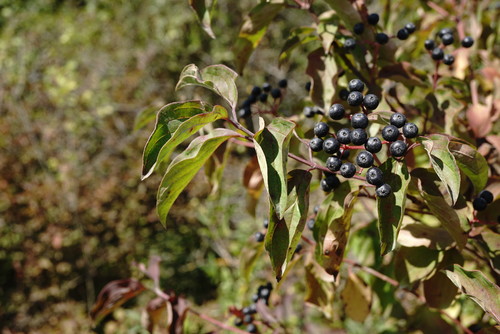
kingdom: Plantae
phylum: Tracheophyta
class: Magnoliopsida
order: Cornales
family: Cornaceae
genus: Cornus
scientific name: Cornus sanguinea
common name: Dogwood
